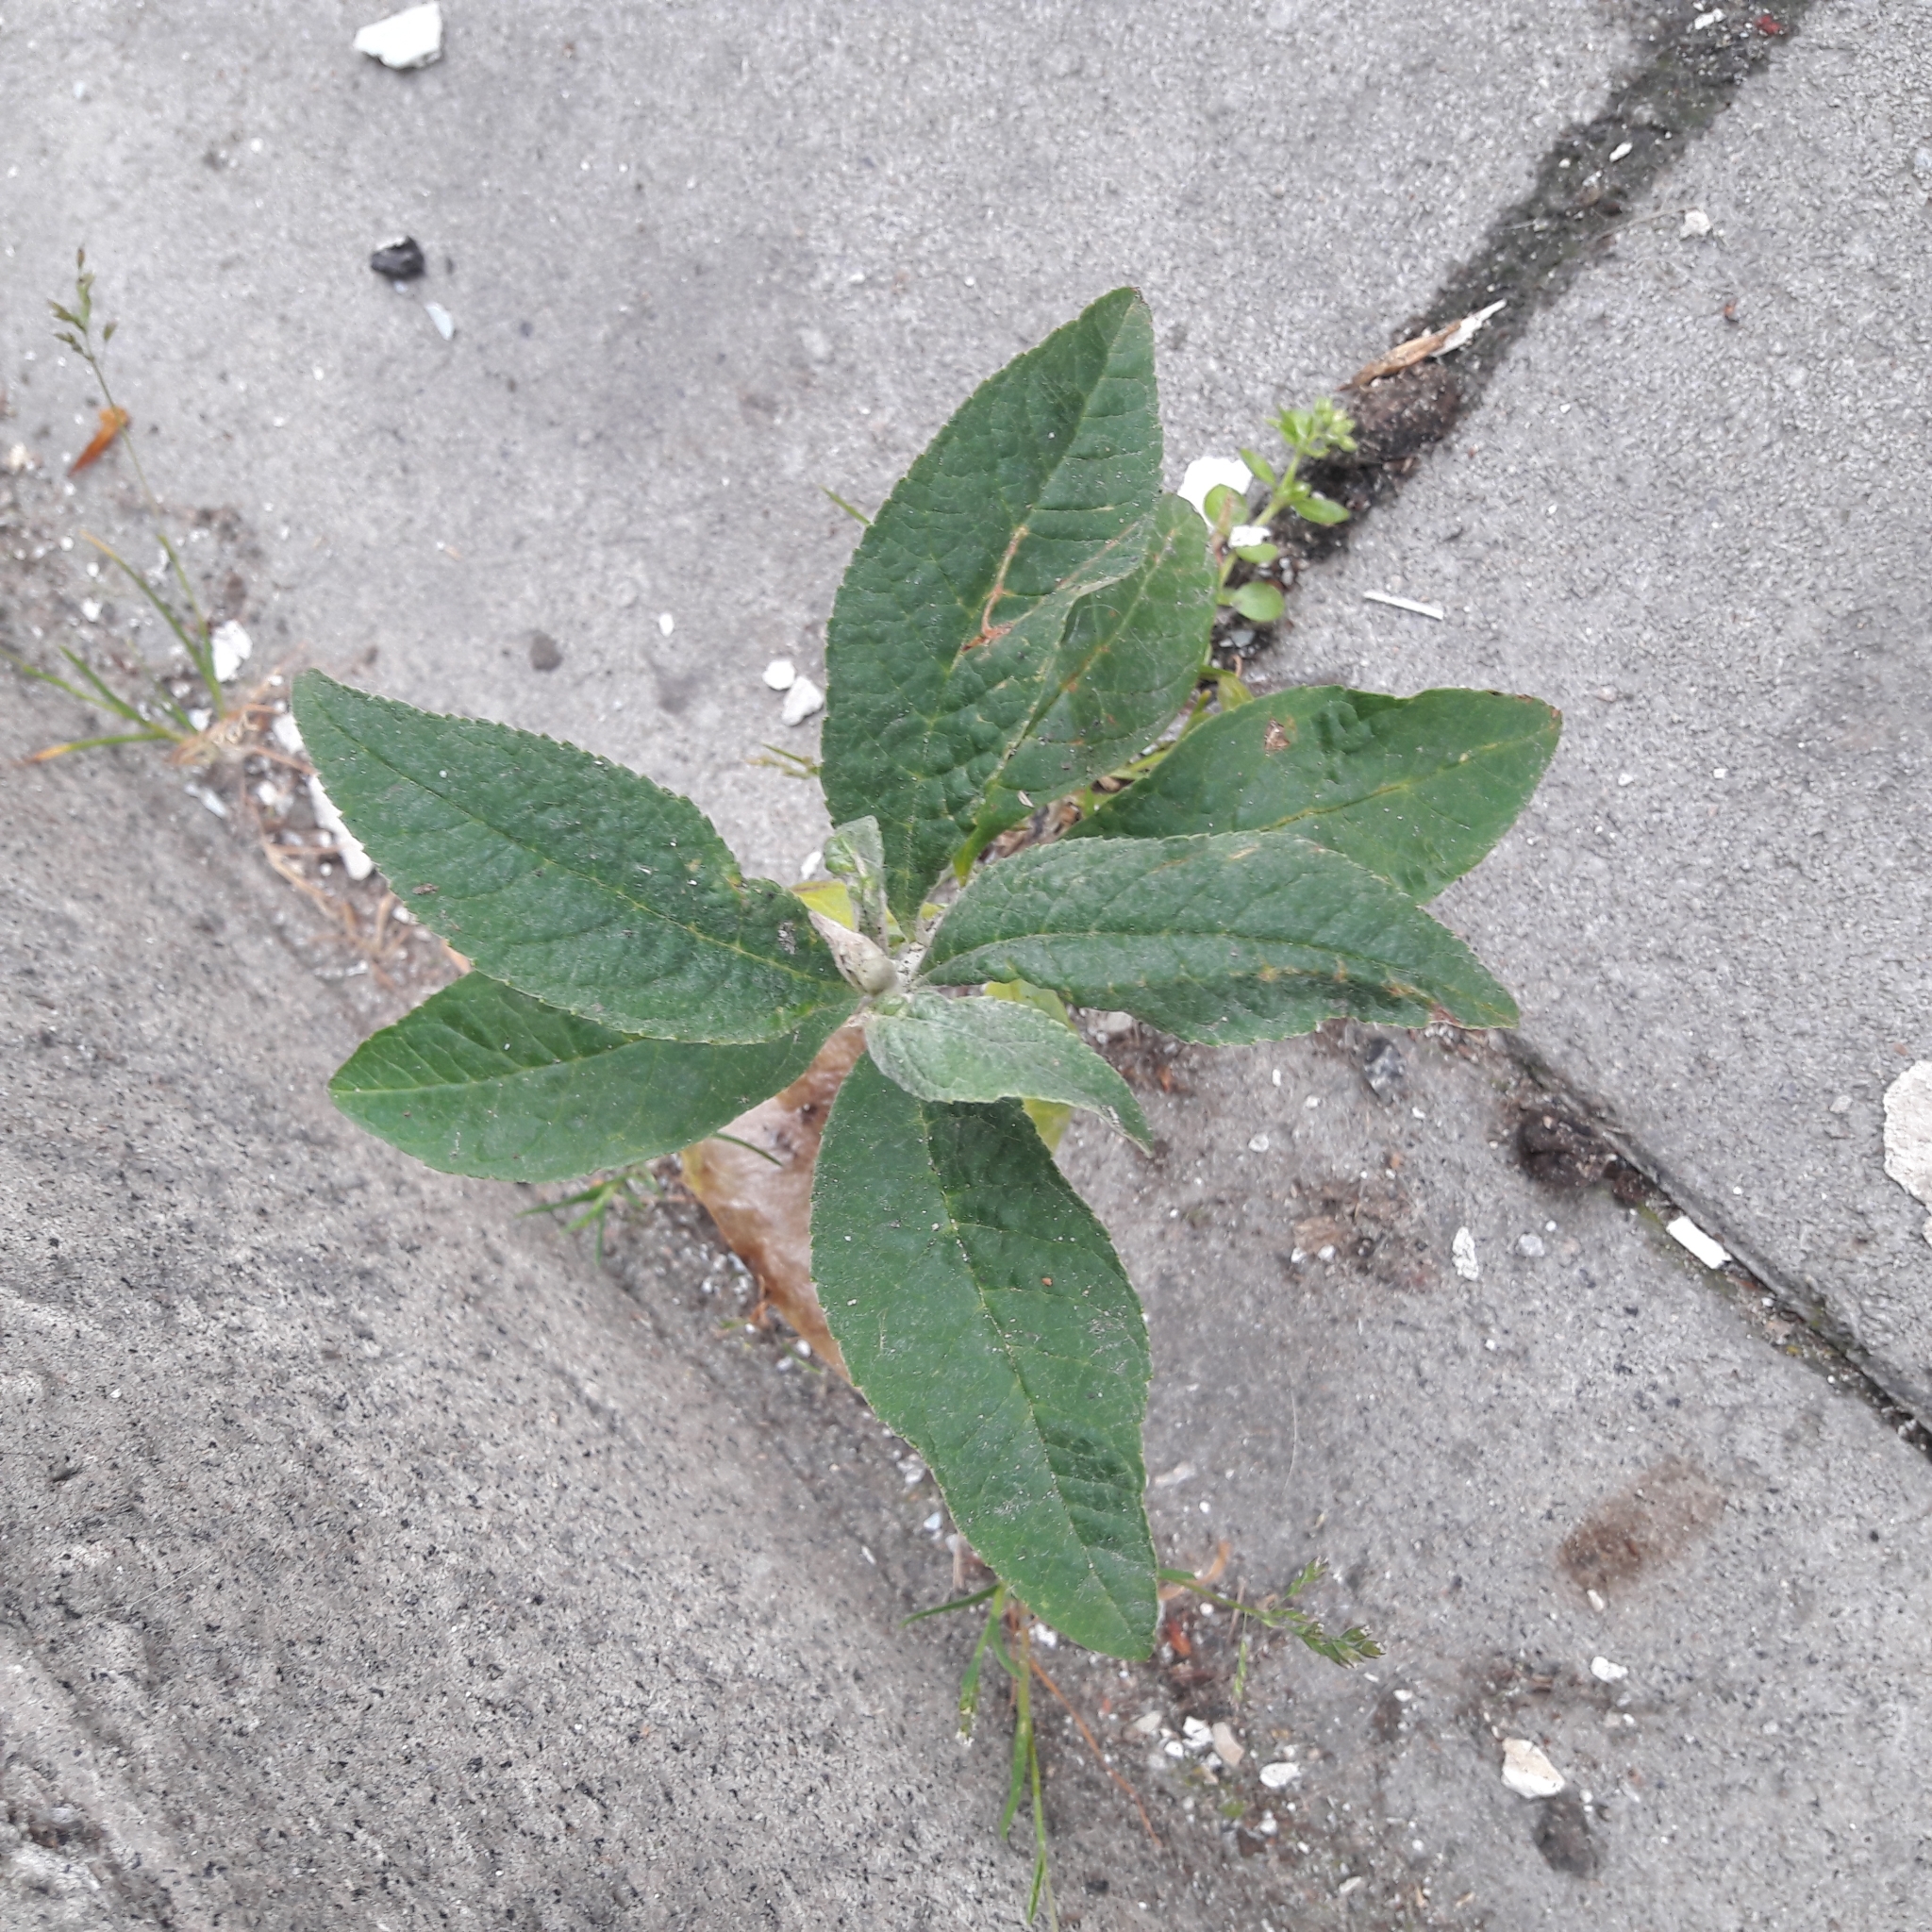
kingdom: Plantae
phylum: Tracheophyta
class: Magnoliopsida
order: Lamiales
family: Scrophulariaceae
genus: Buddleja
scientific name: Buddleja davidii
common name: Butterfly-bush
